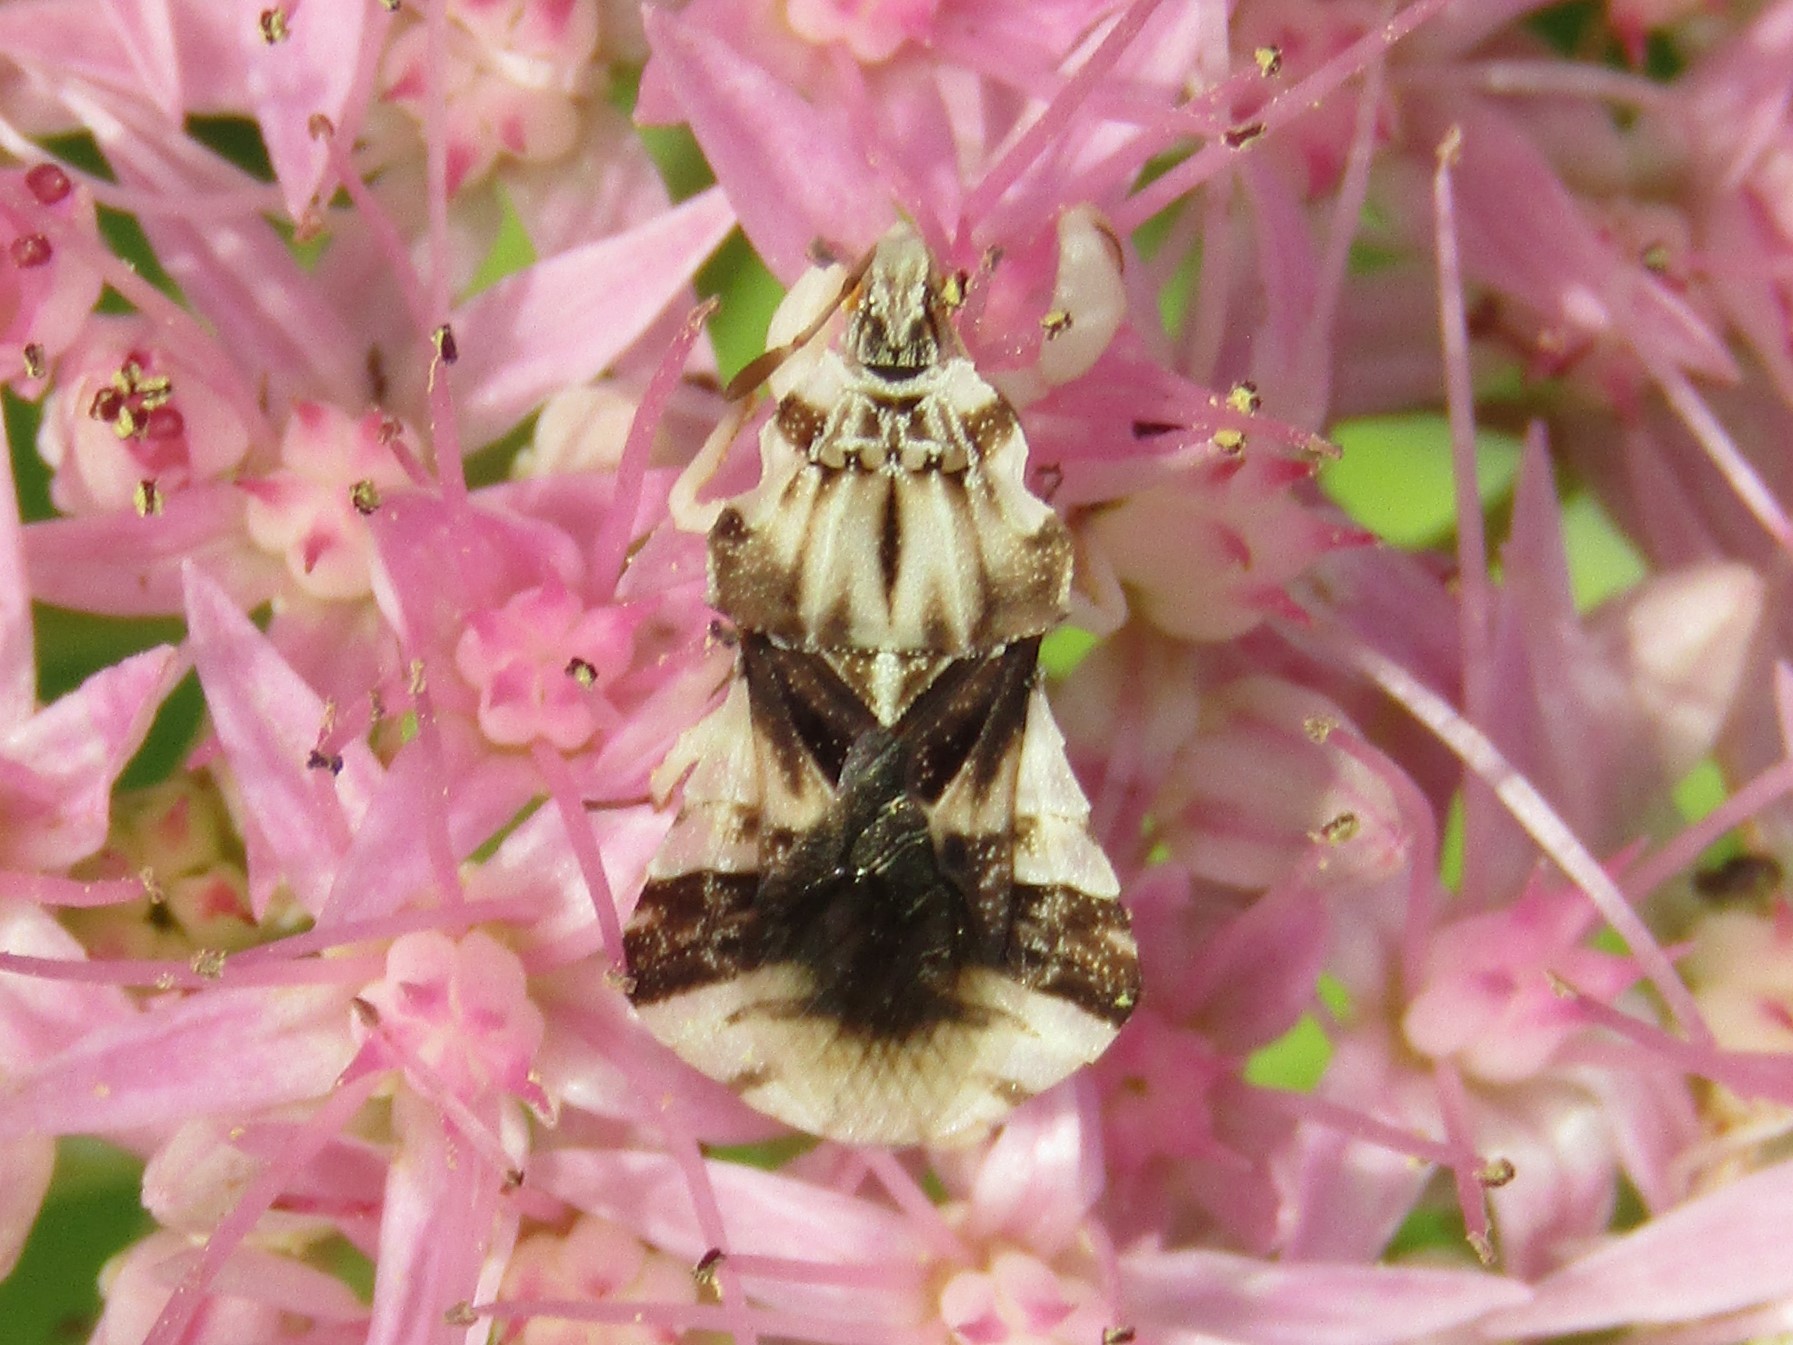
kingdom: Animalia
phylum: Arthropoda
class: Insecta
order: Hemiptera
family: Reduviidae
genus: Phymata
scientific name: Phymata fasciata
